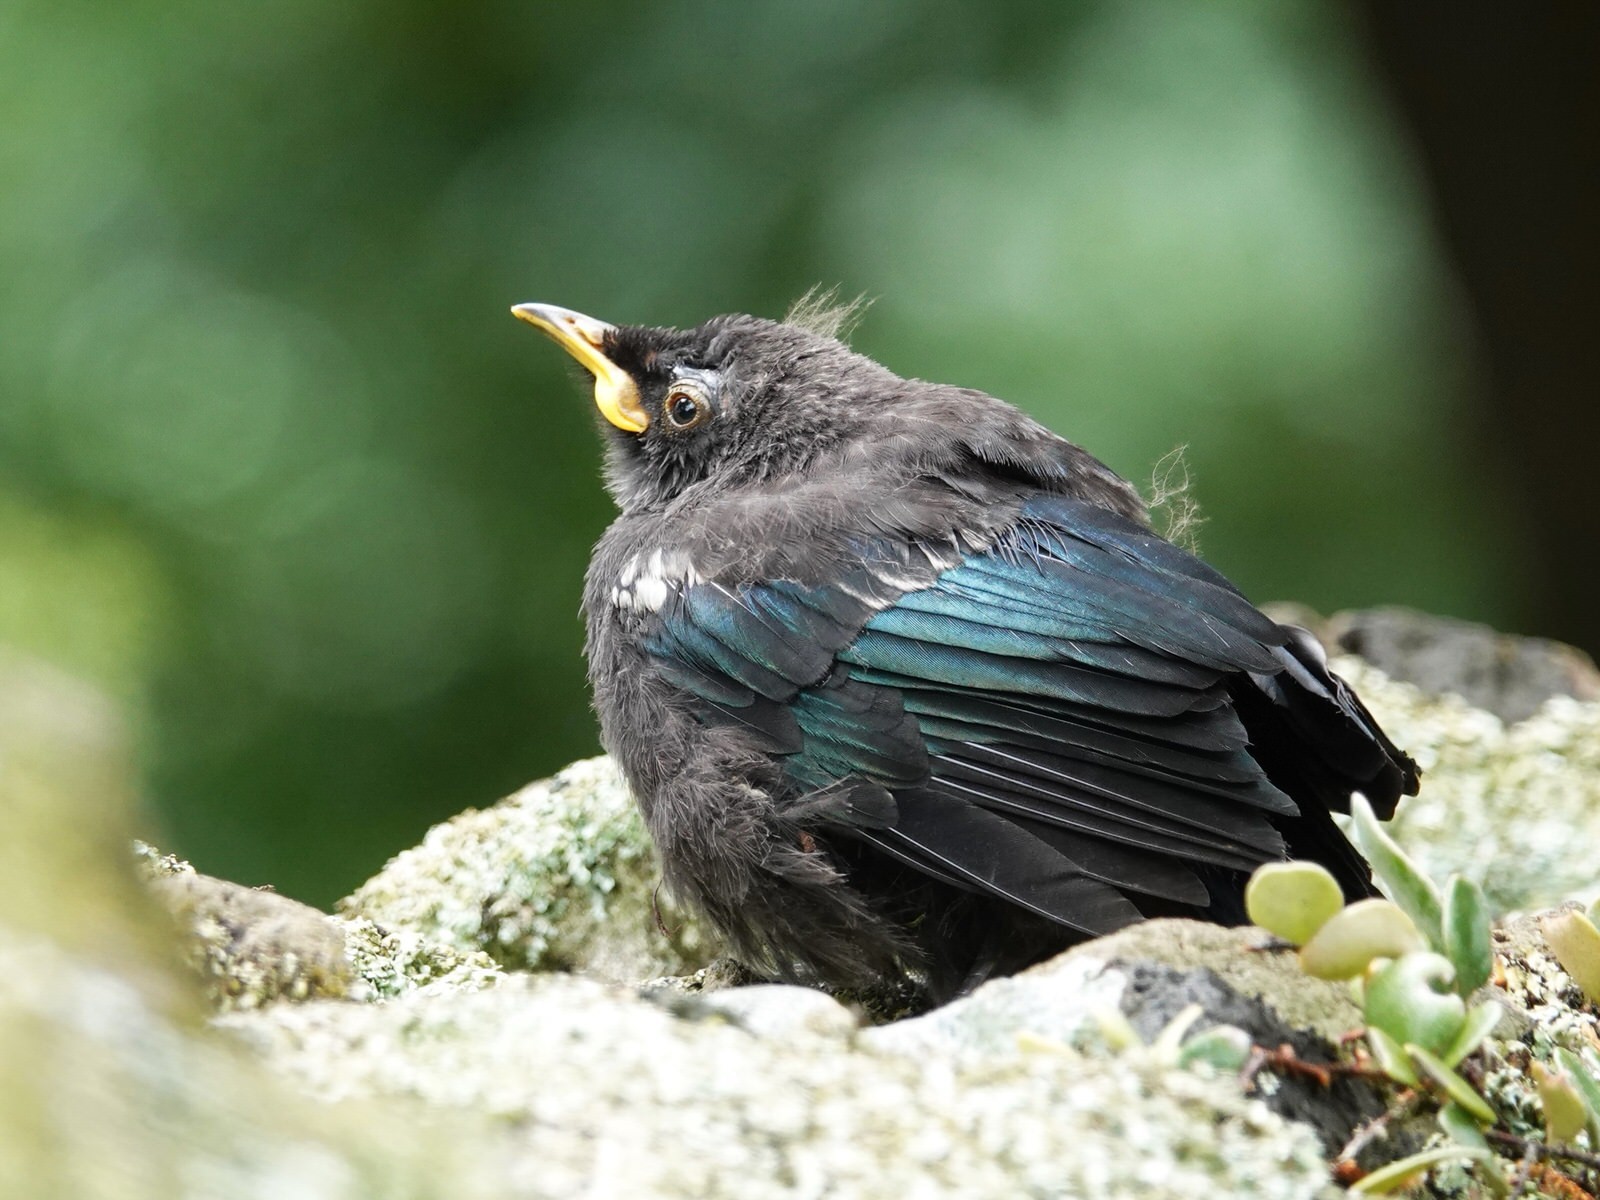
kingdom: Animalia
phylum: Chordata
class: Aves
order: Passeriformes
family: Meliphagidae
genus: Prosthemadera
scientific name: Prosthemadera novaeseelandiae
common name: Tui
